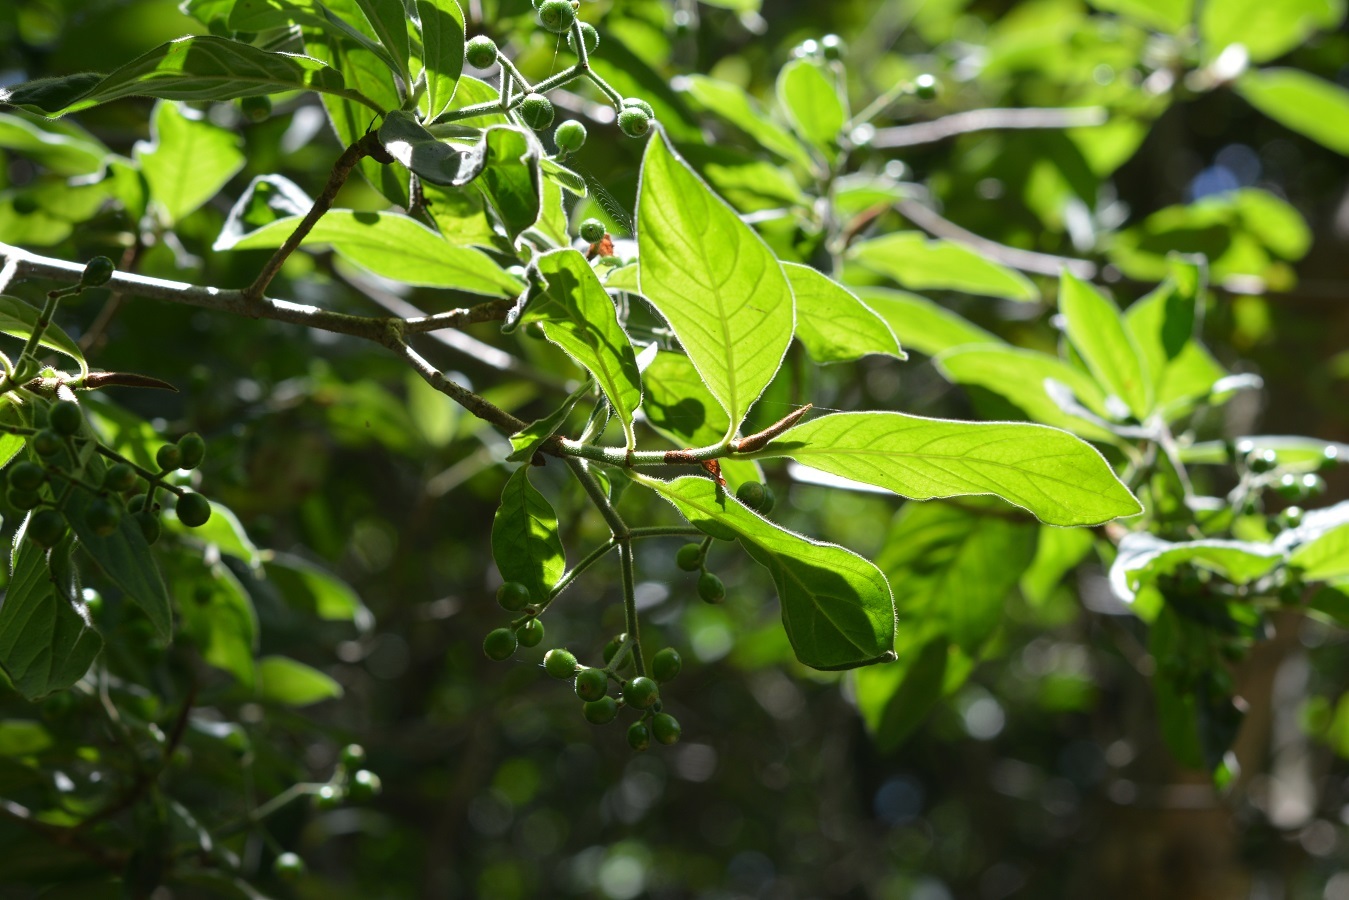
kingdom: Plantae
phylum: Tracheophyta
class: Magnoliopsida
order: Gentianales
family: Rubiaceae
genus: Psychotria
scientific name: Psychotria erythrocarpa
